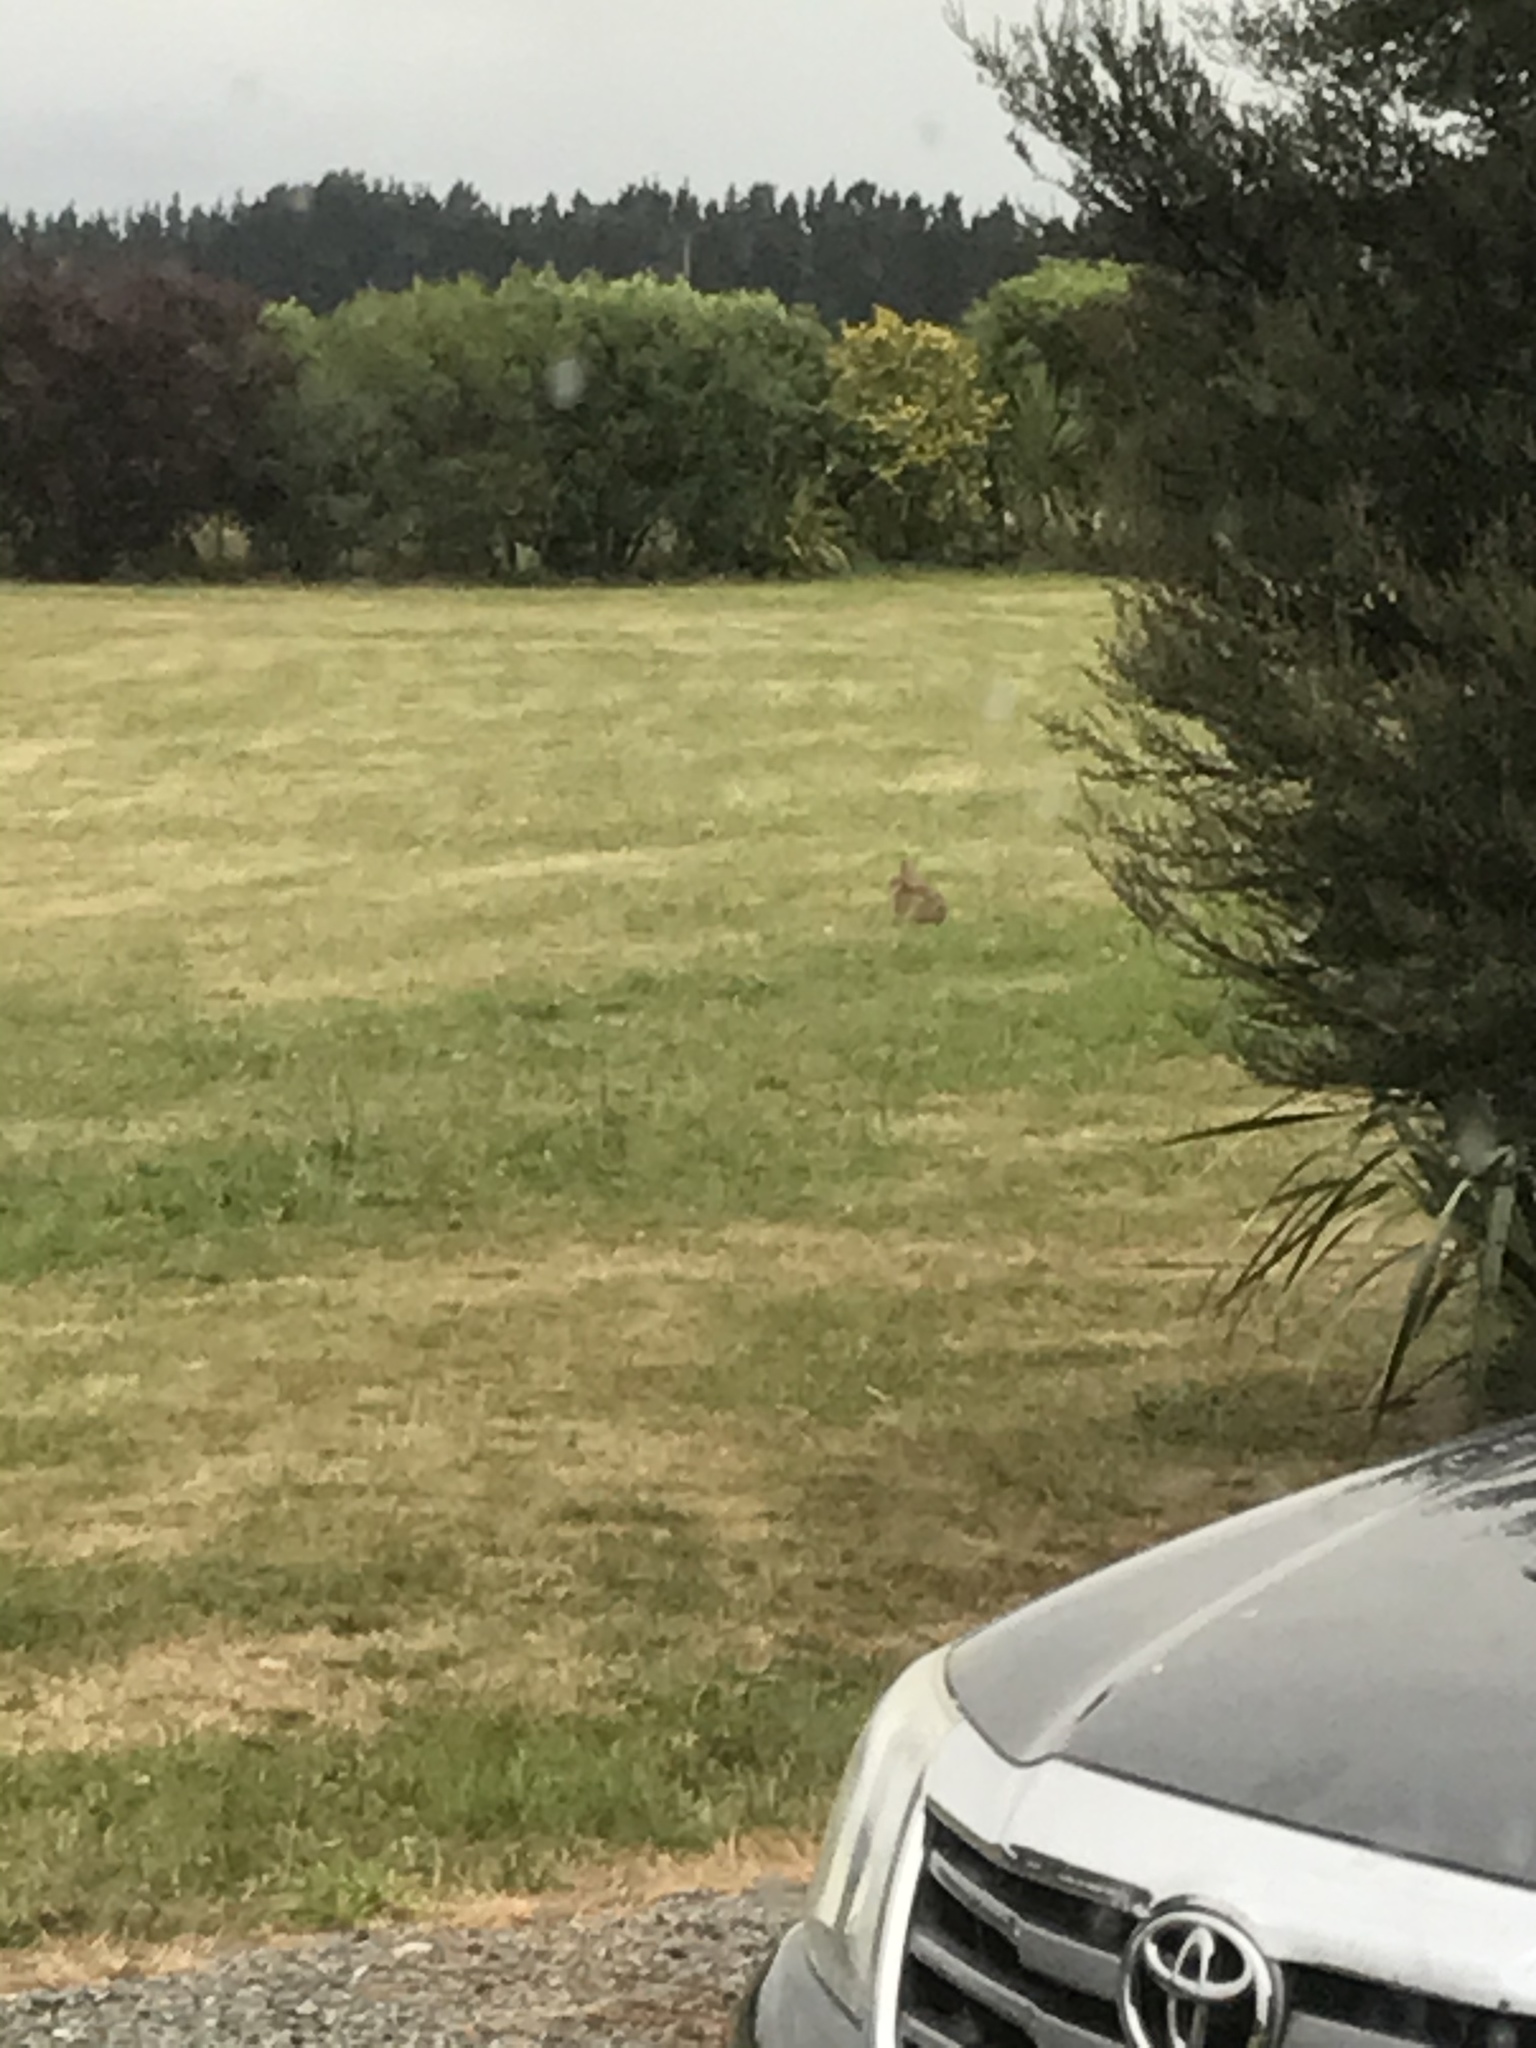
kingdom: Animalia
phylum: Chordata
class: Mammalia
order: Lagomorpha
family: Leporidae
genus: Oryctolagus
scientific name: Oryctolagus cuniculus
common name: European rabbit
